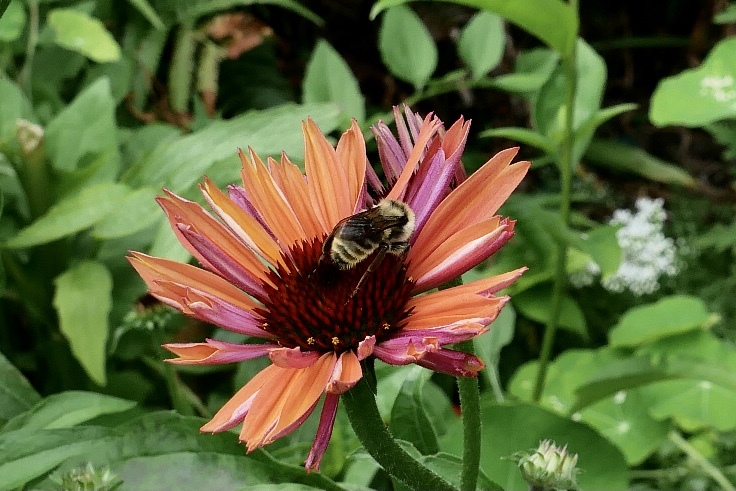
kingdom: Animalia
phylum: Arthropoda
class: Insecta
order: Hymenoptera
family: Apidae
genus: Bombus
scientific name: Bombus californicus
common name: California bumble bee
